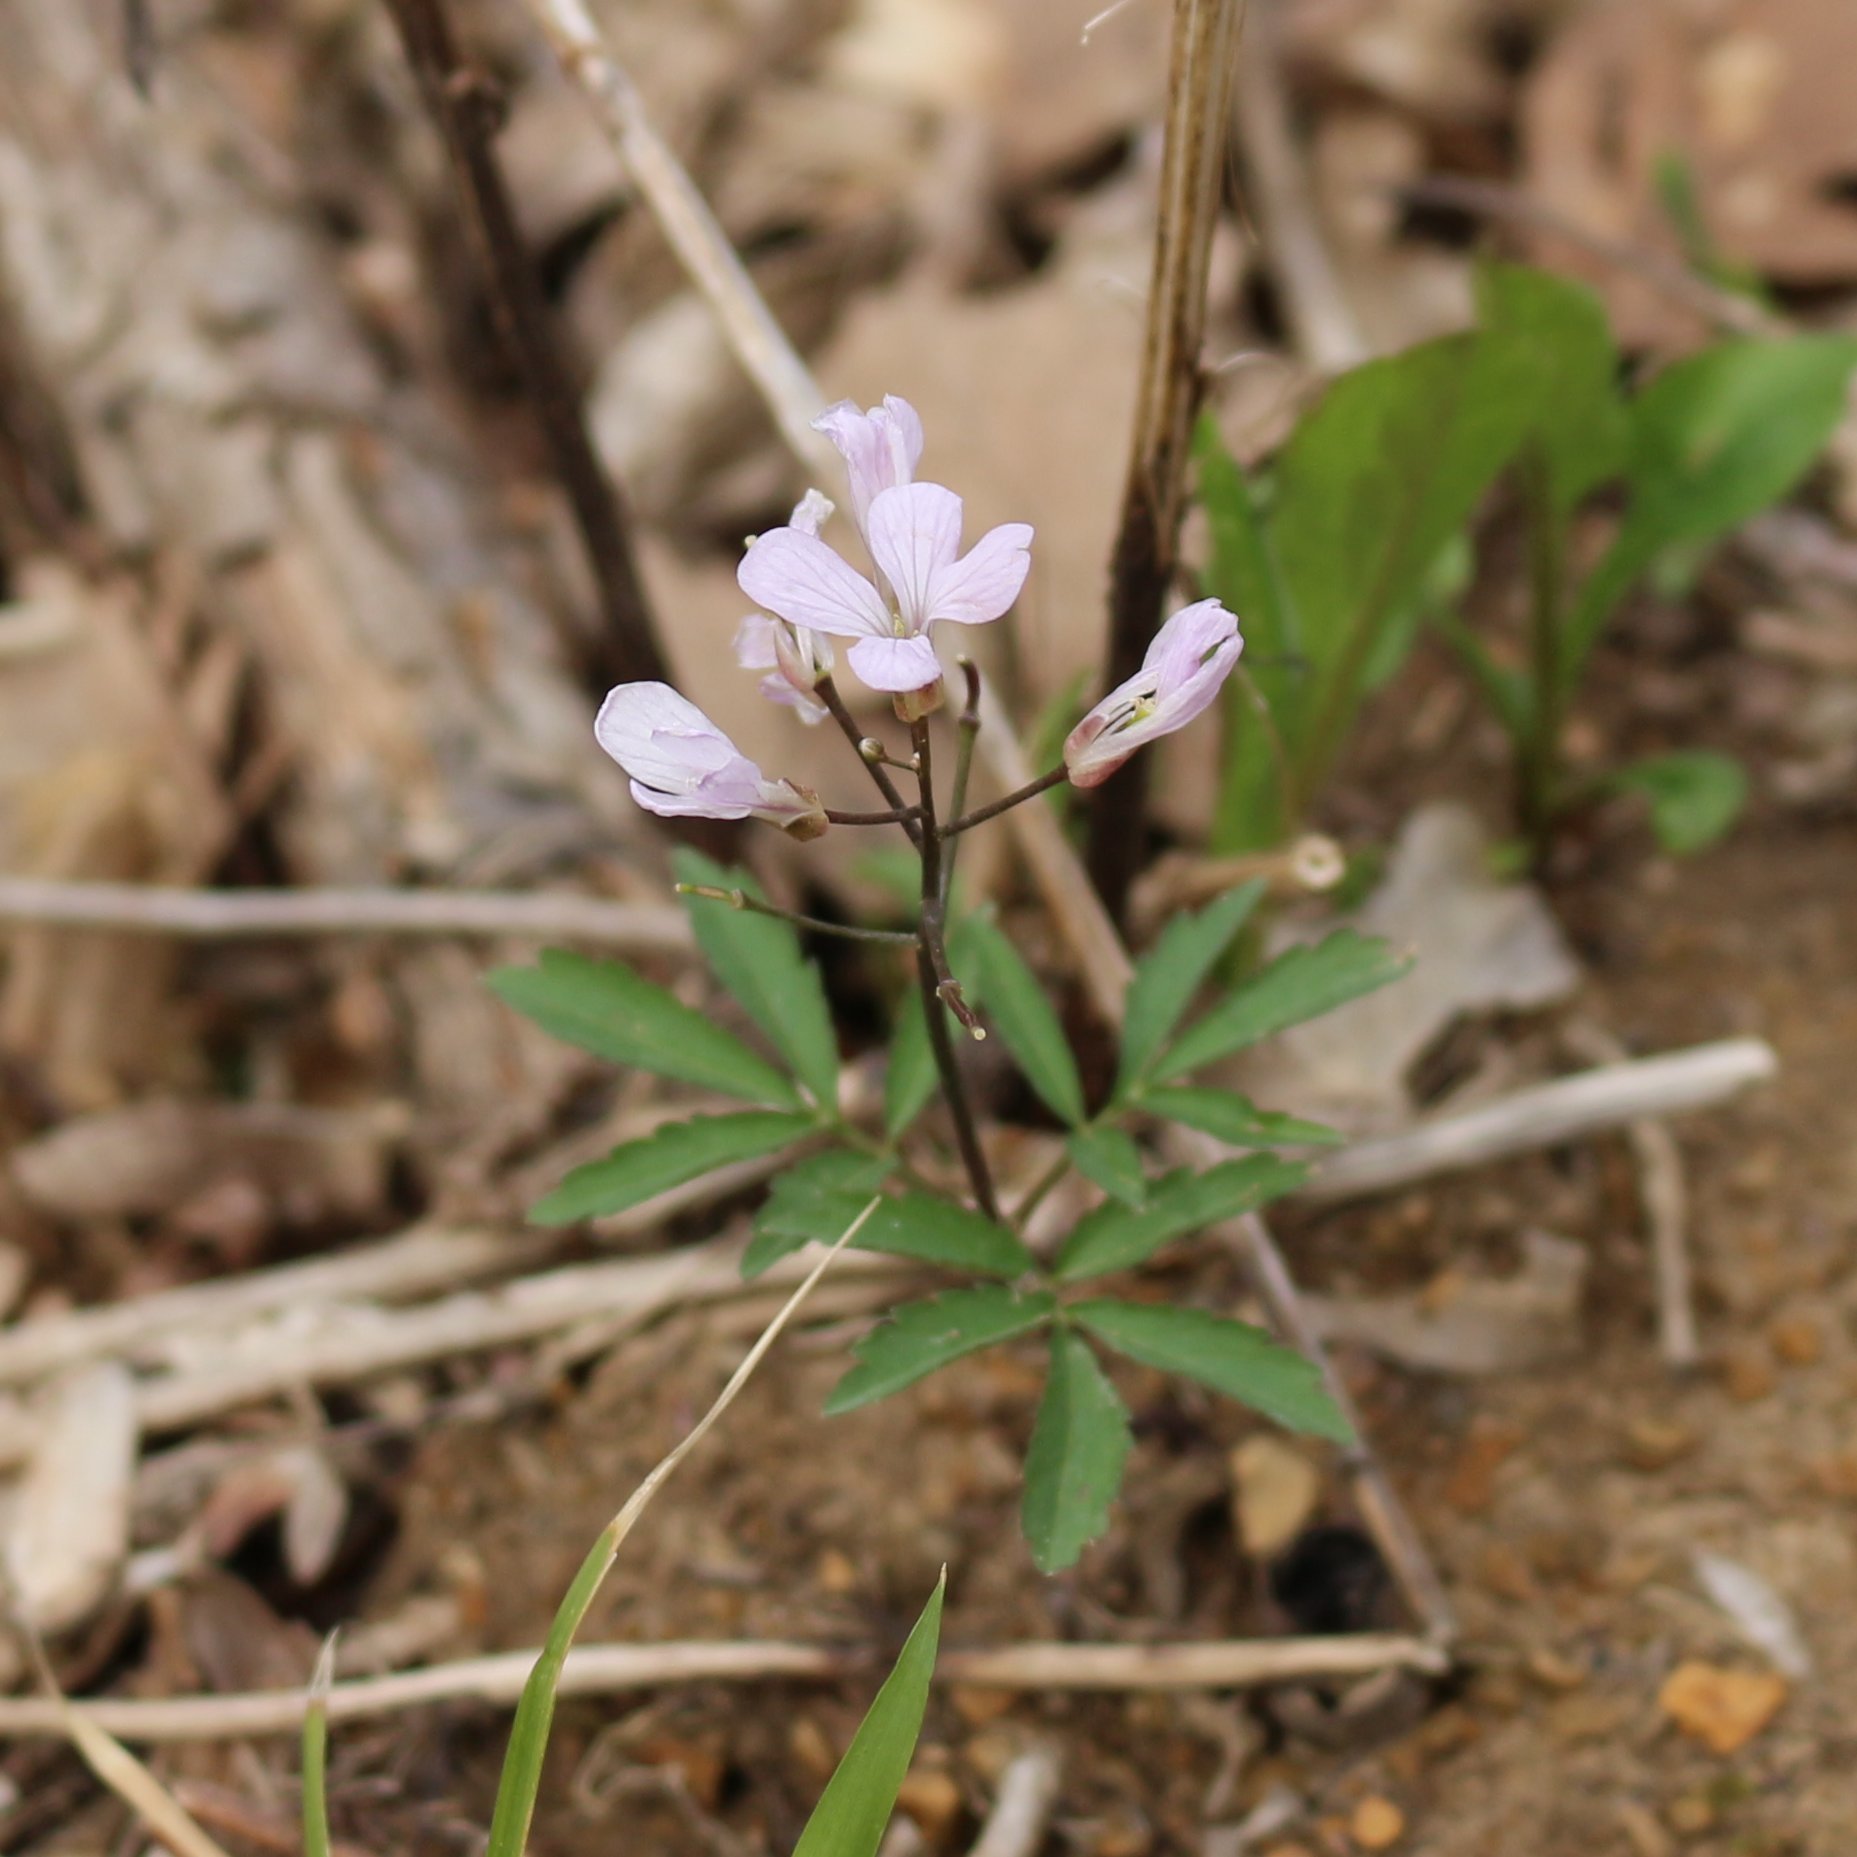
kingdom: Plantae
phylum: Tracheophyta
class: Magnoliopsida
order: Brassicales
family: Brassicaceae
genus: Cardamine
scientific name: Cardamine quinquefolia
